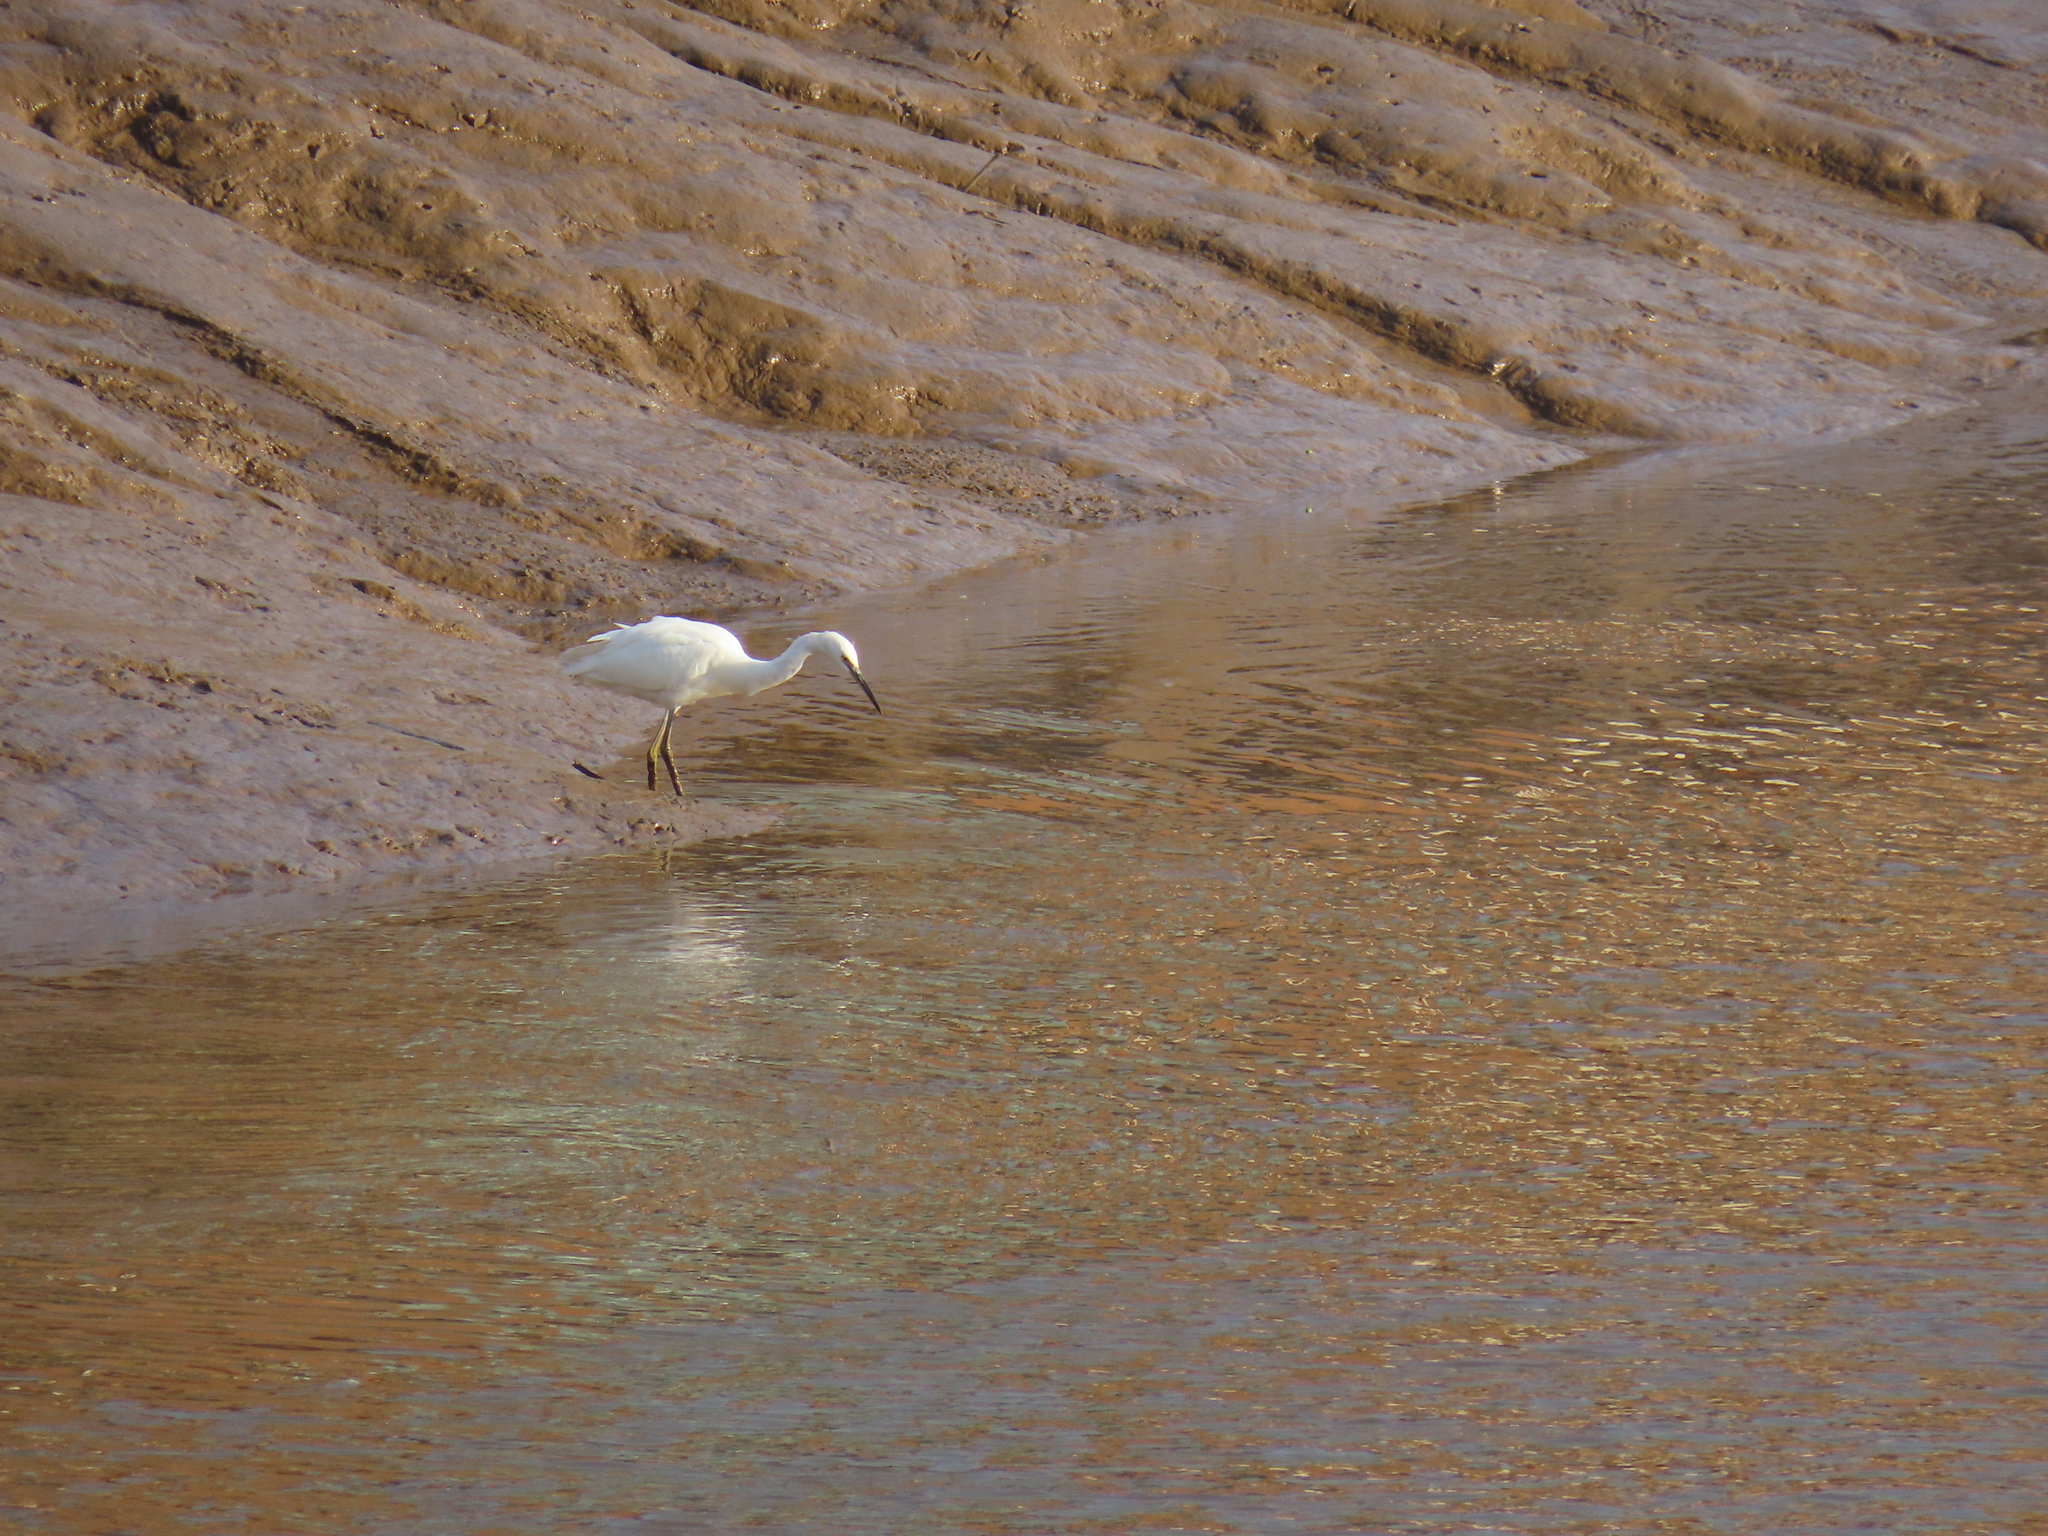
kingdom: Animalia
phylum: Chordata
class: Aves
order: Pelecaniformes
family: Ardeidae
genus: Egretta
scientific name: Egretta garzetta
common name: Little egret
